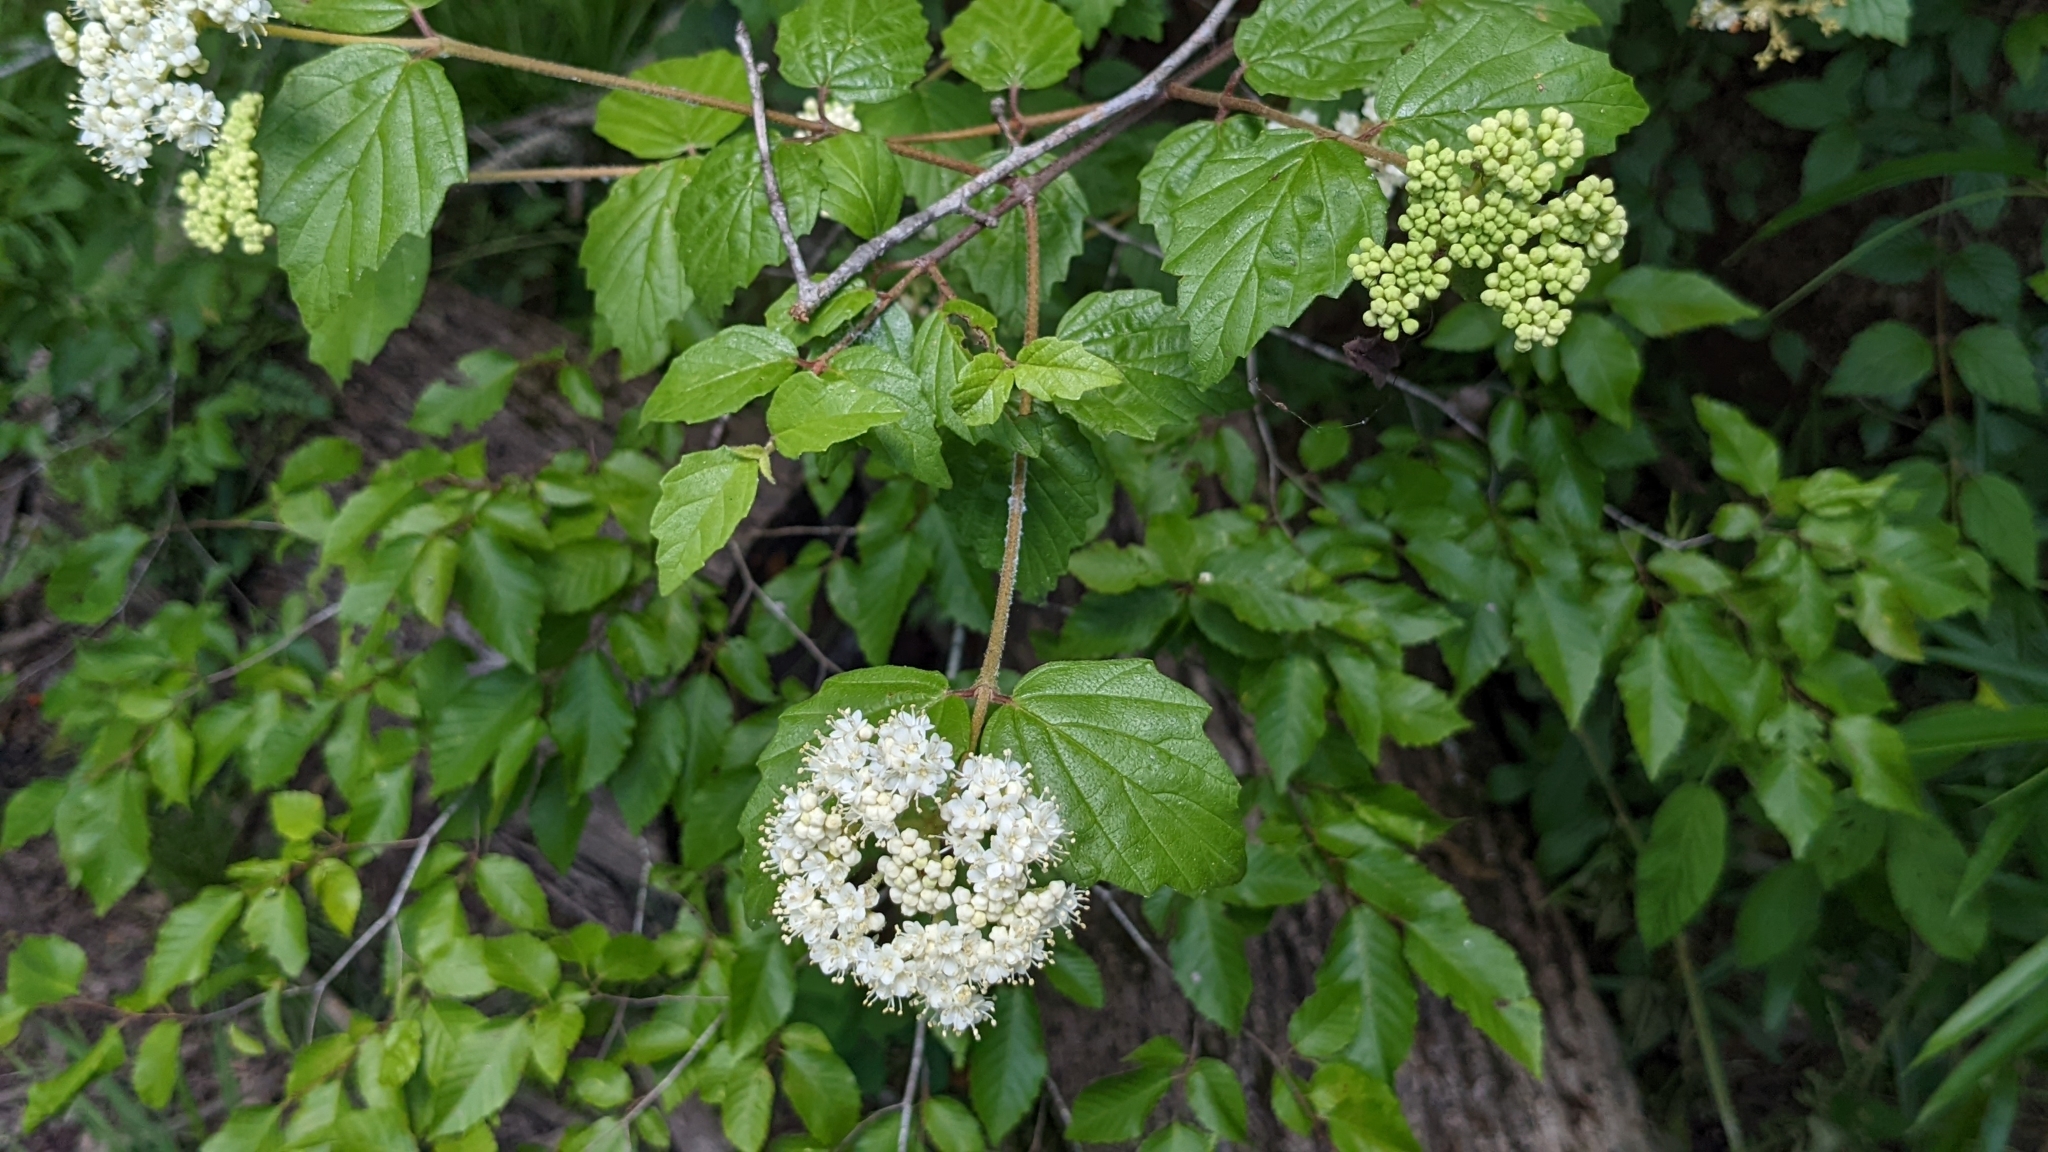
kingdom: Plantae
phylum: Tracheophyta
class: Magnoliopsida
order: Dipsacales
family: Viburnaceae
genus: Viburnum
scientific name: Viburnum scabrellum
